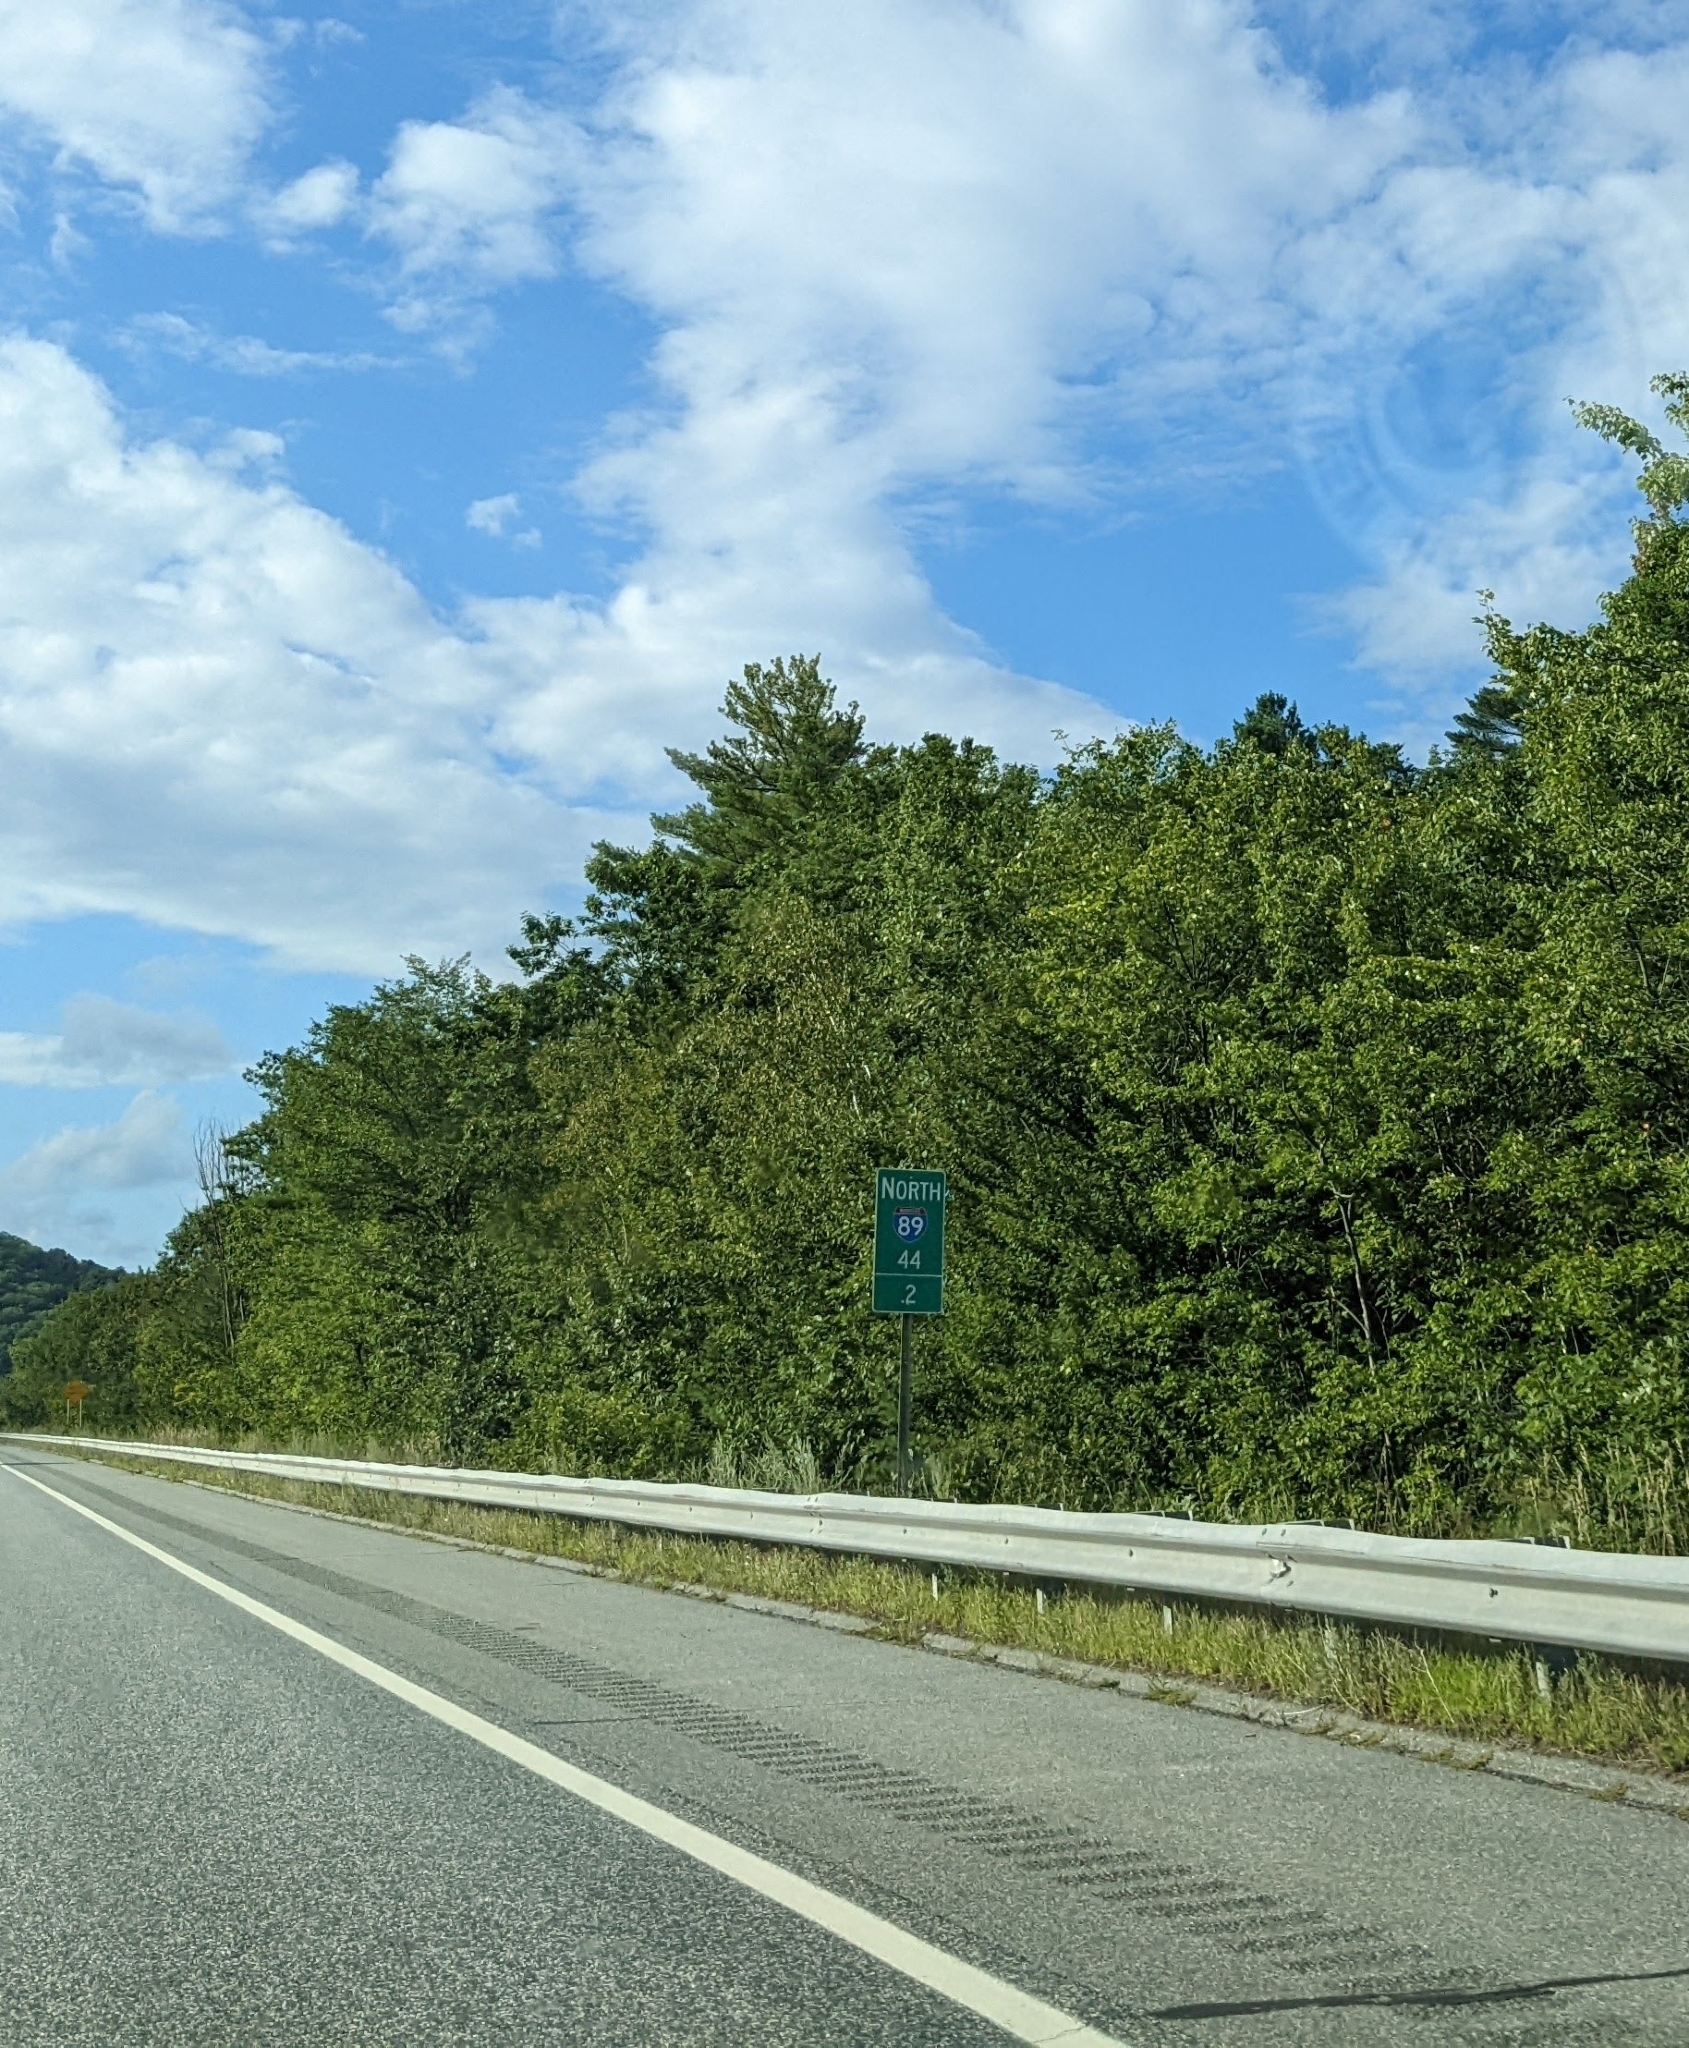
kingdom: Plantae
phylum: Tracheophyta
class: Pinopsida
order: Pinales
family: Pinaceae
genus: Pinus
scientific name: Pinus strobus
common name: Weymouth pine
